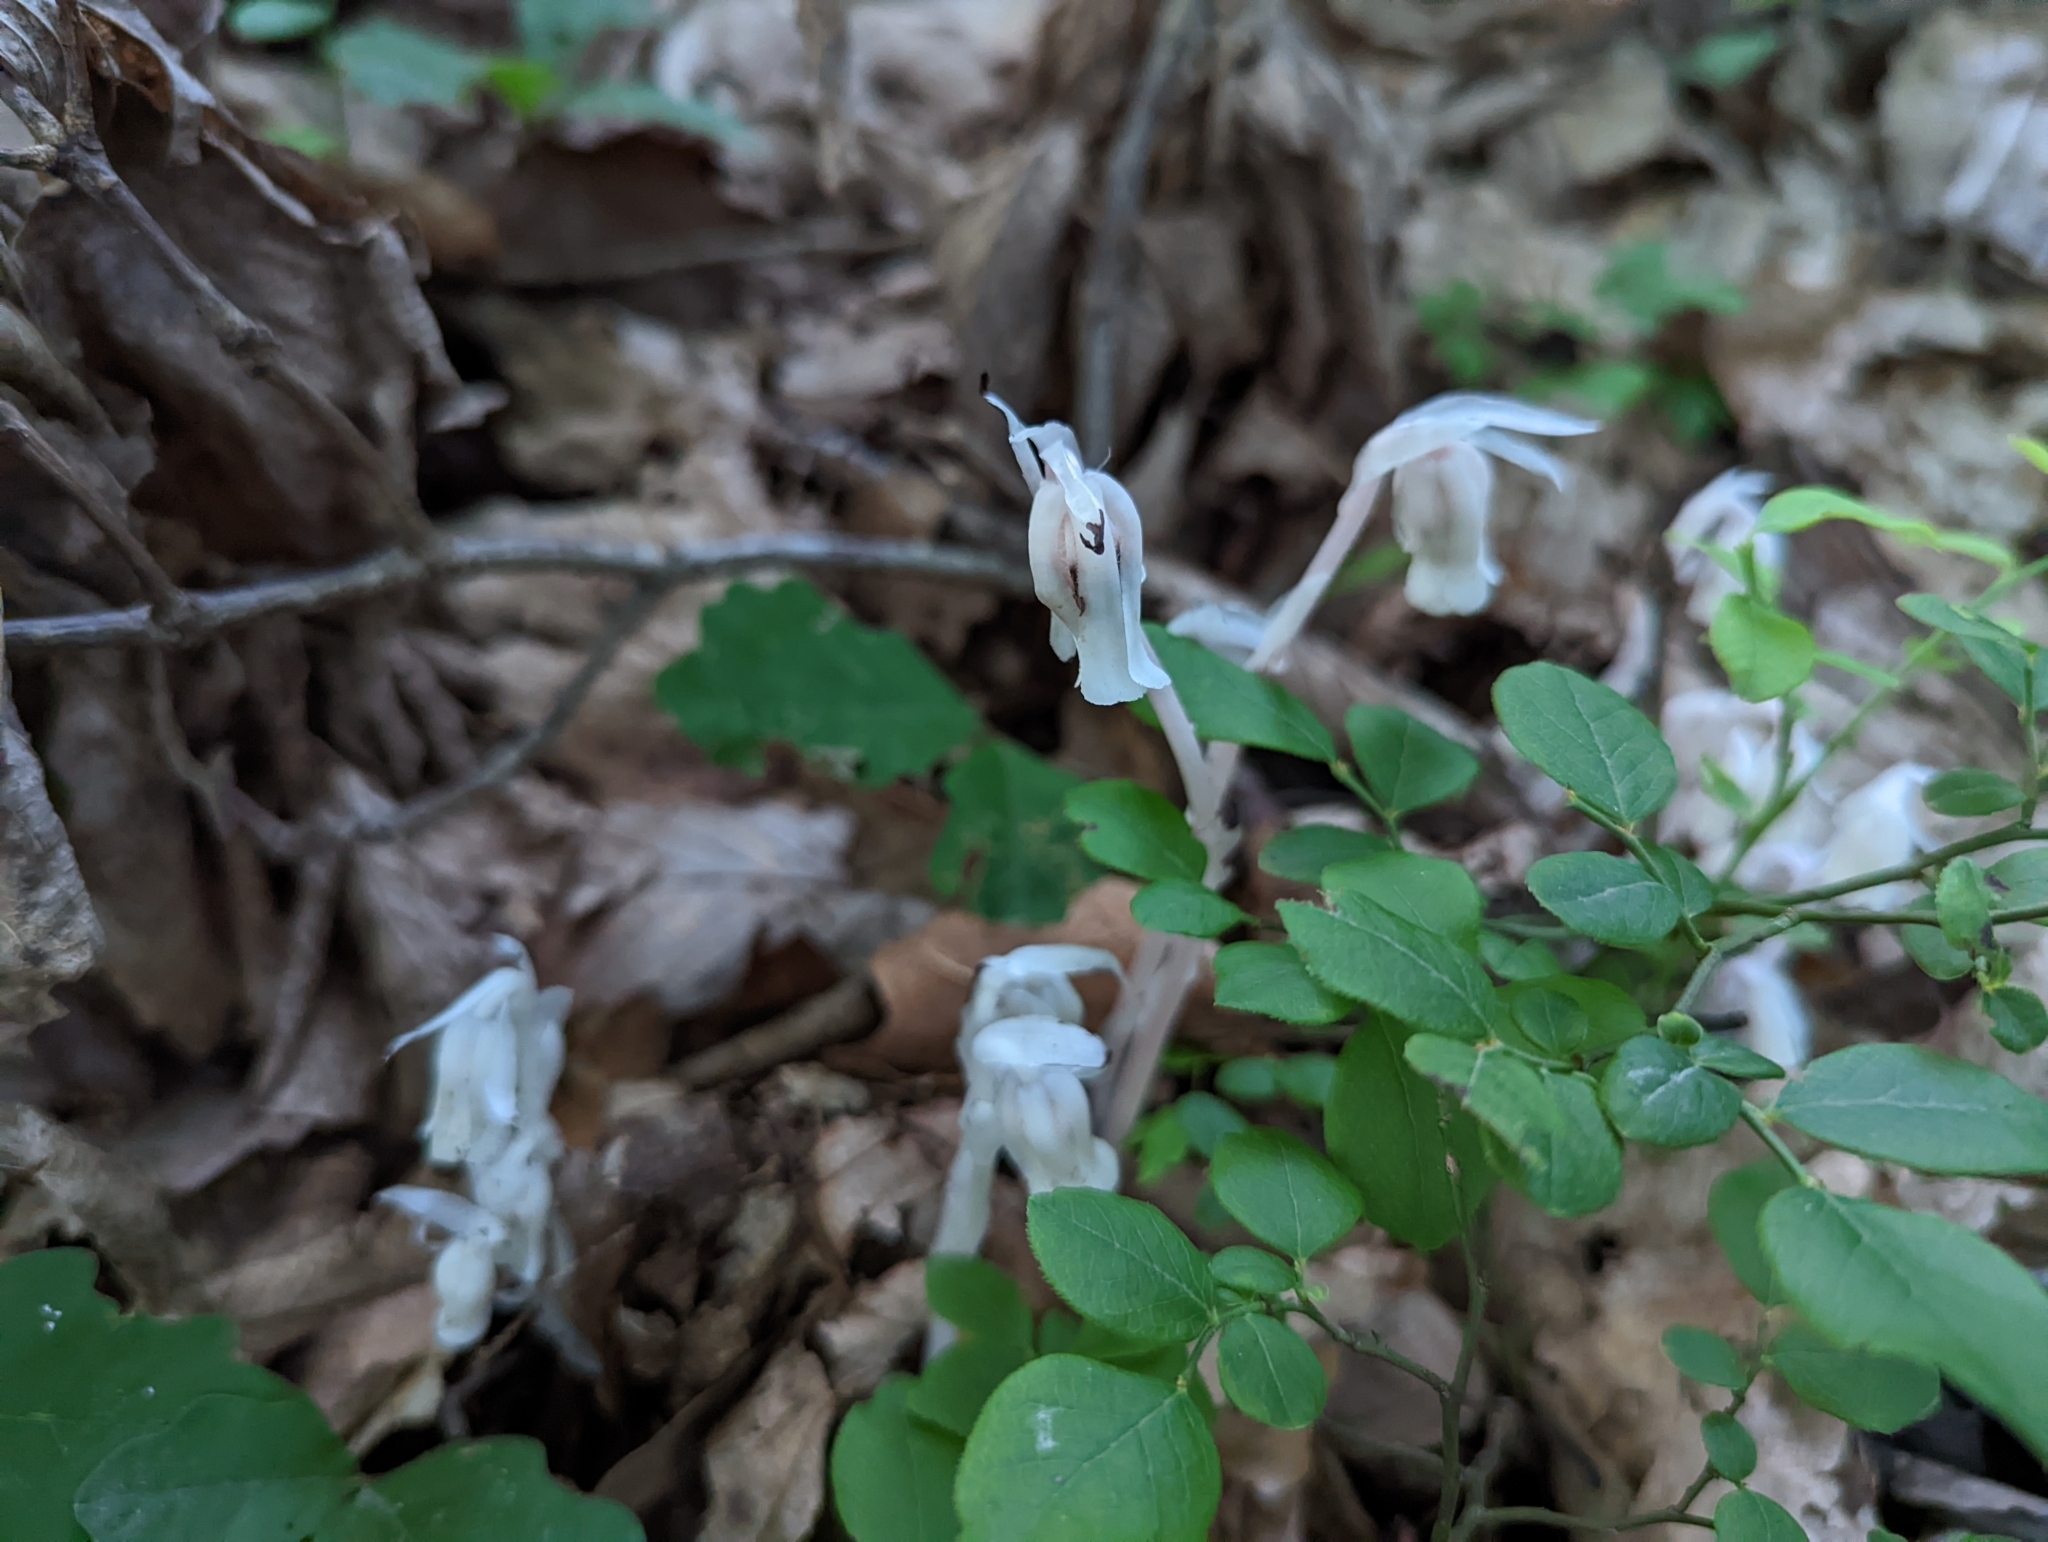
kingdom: Plantae
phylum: Tracheophyta
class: Magnoliopsida
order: Ericales
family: Ericaceae
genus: Monotropa
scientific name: Monotropa uniflora
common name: Convulsion root
